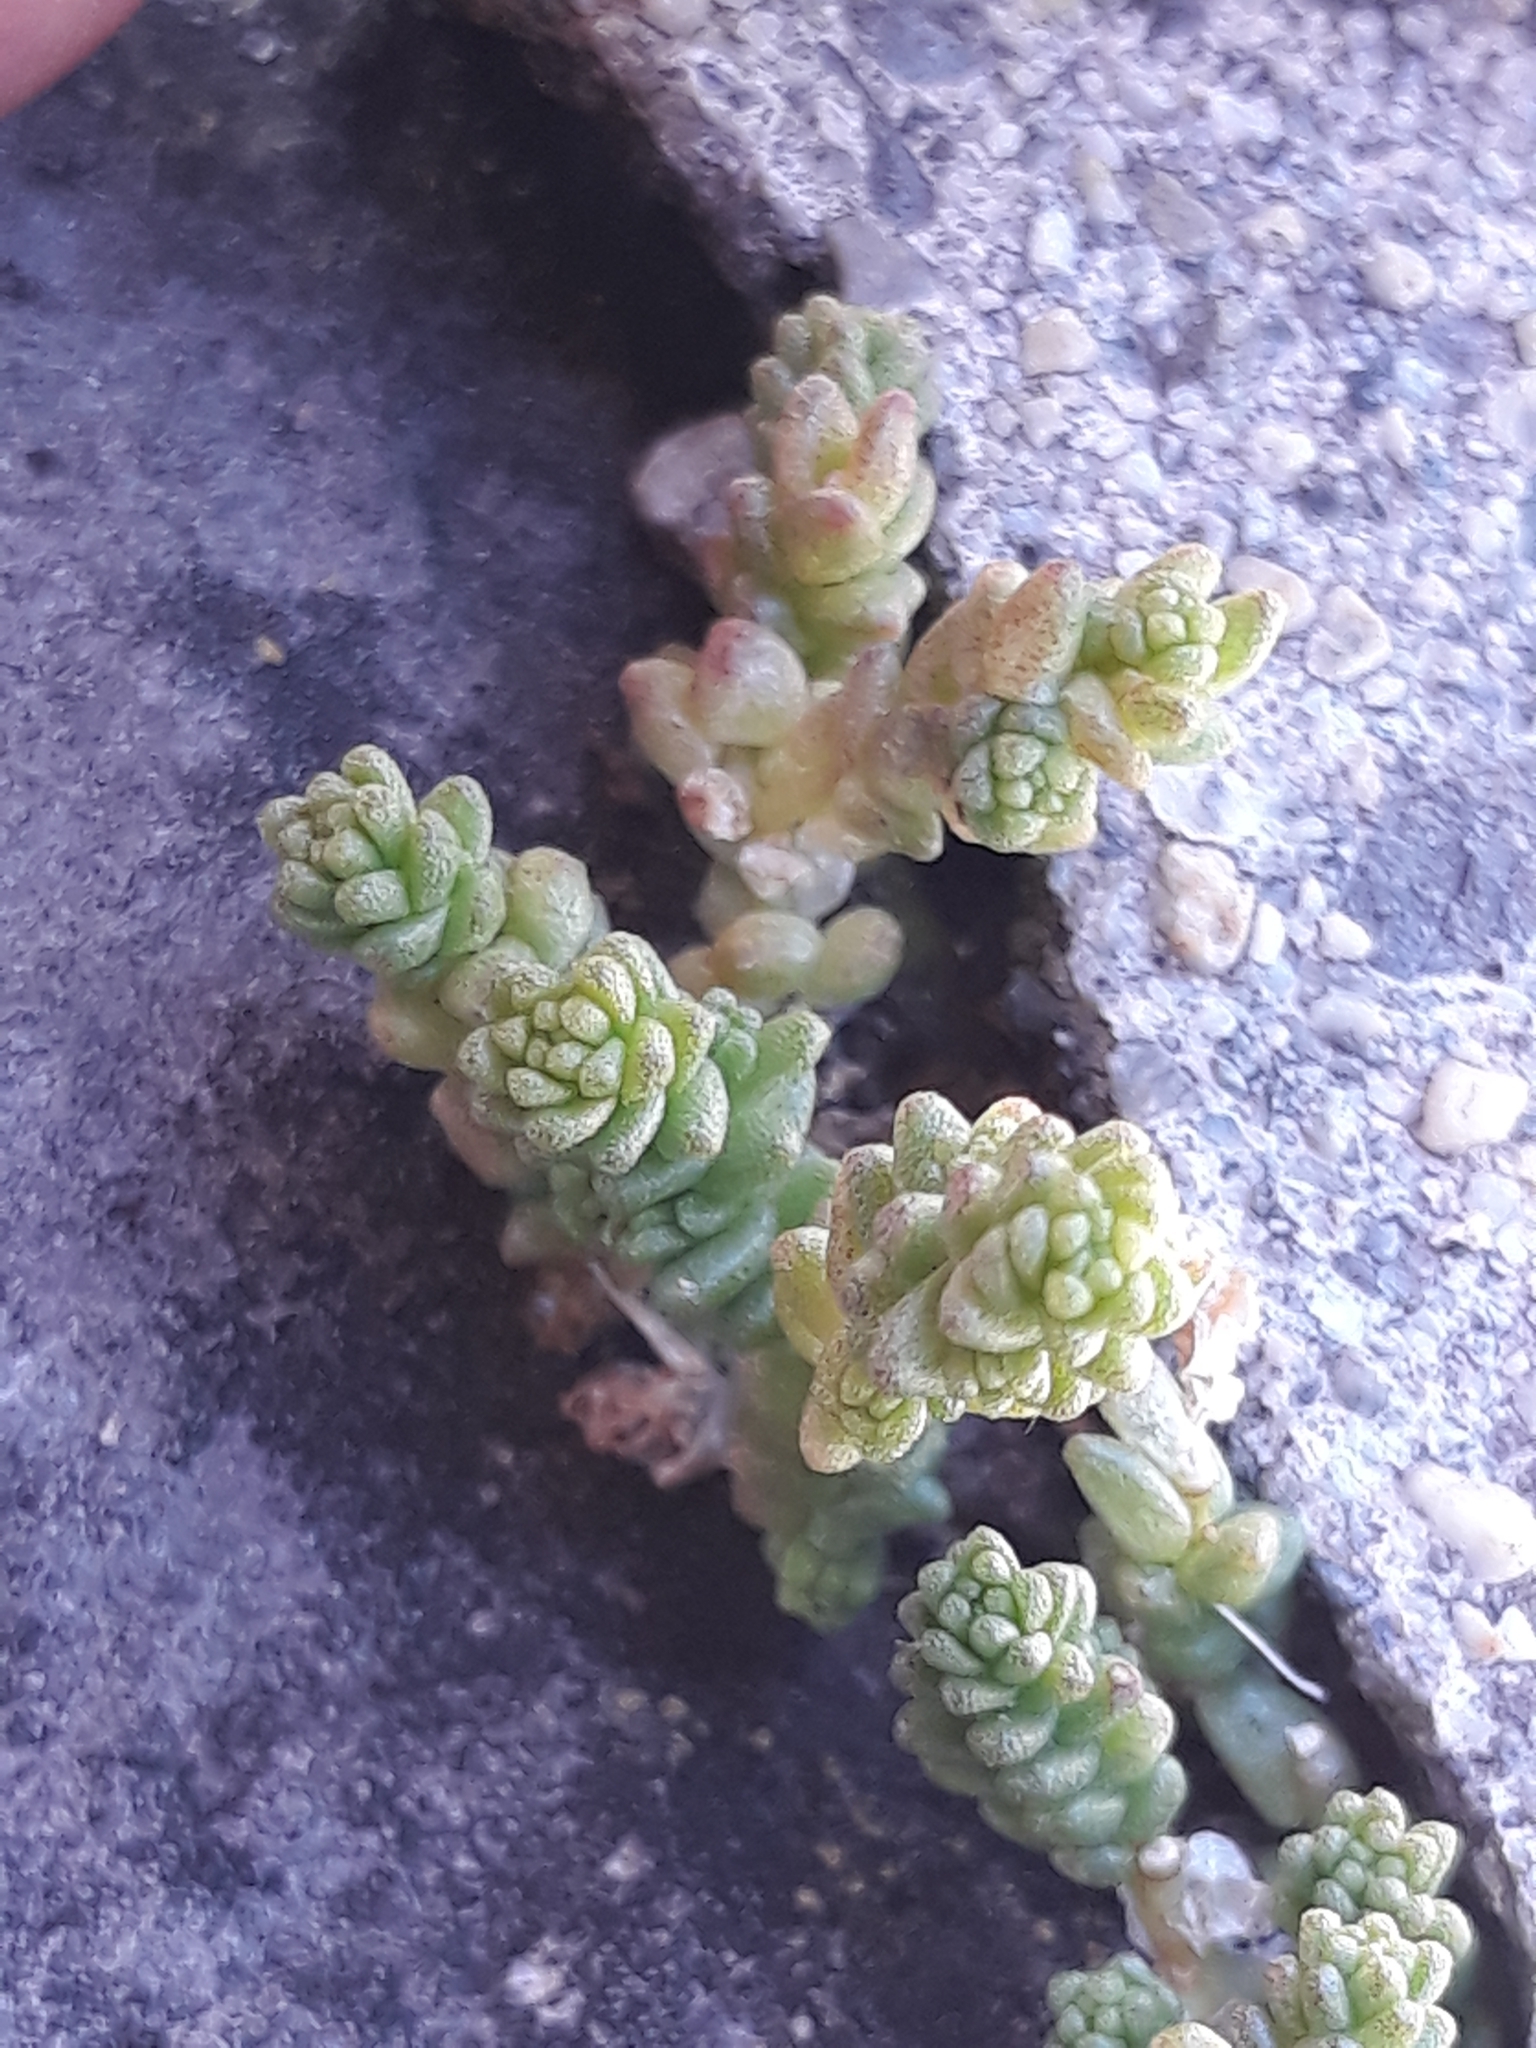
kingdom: Plantae
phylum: Tracheophyta
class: Magnoliopsida
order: Saxifragales
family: Crassulaceae
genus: Sedum
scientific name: Sedum acre
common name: Biting stonecrop
